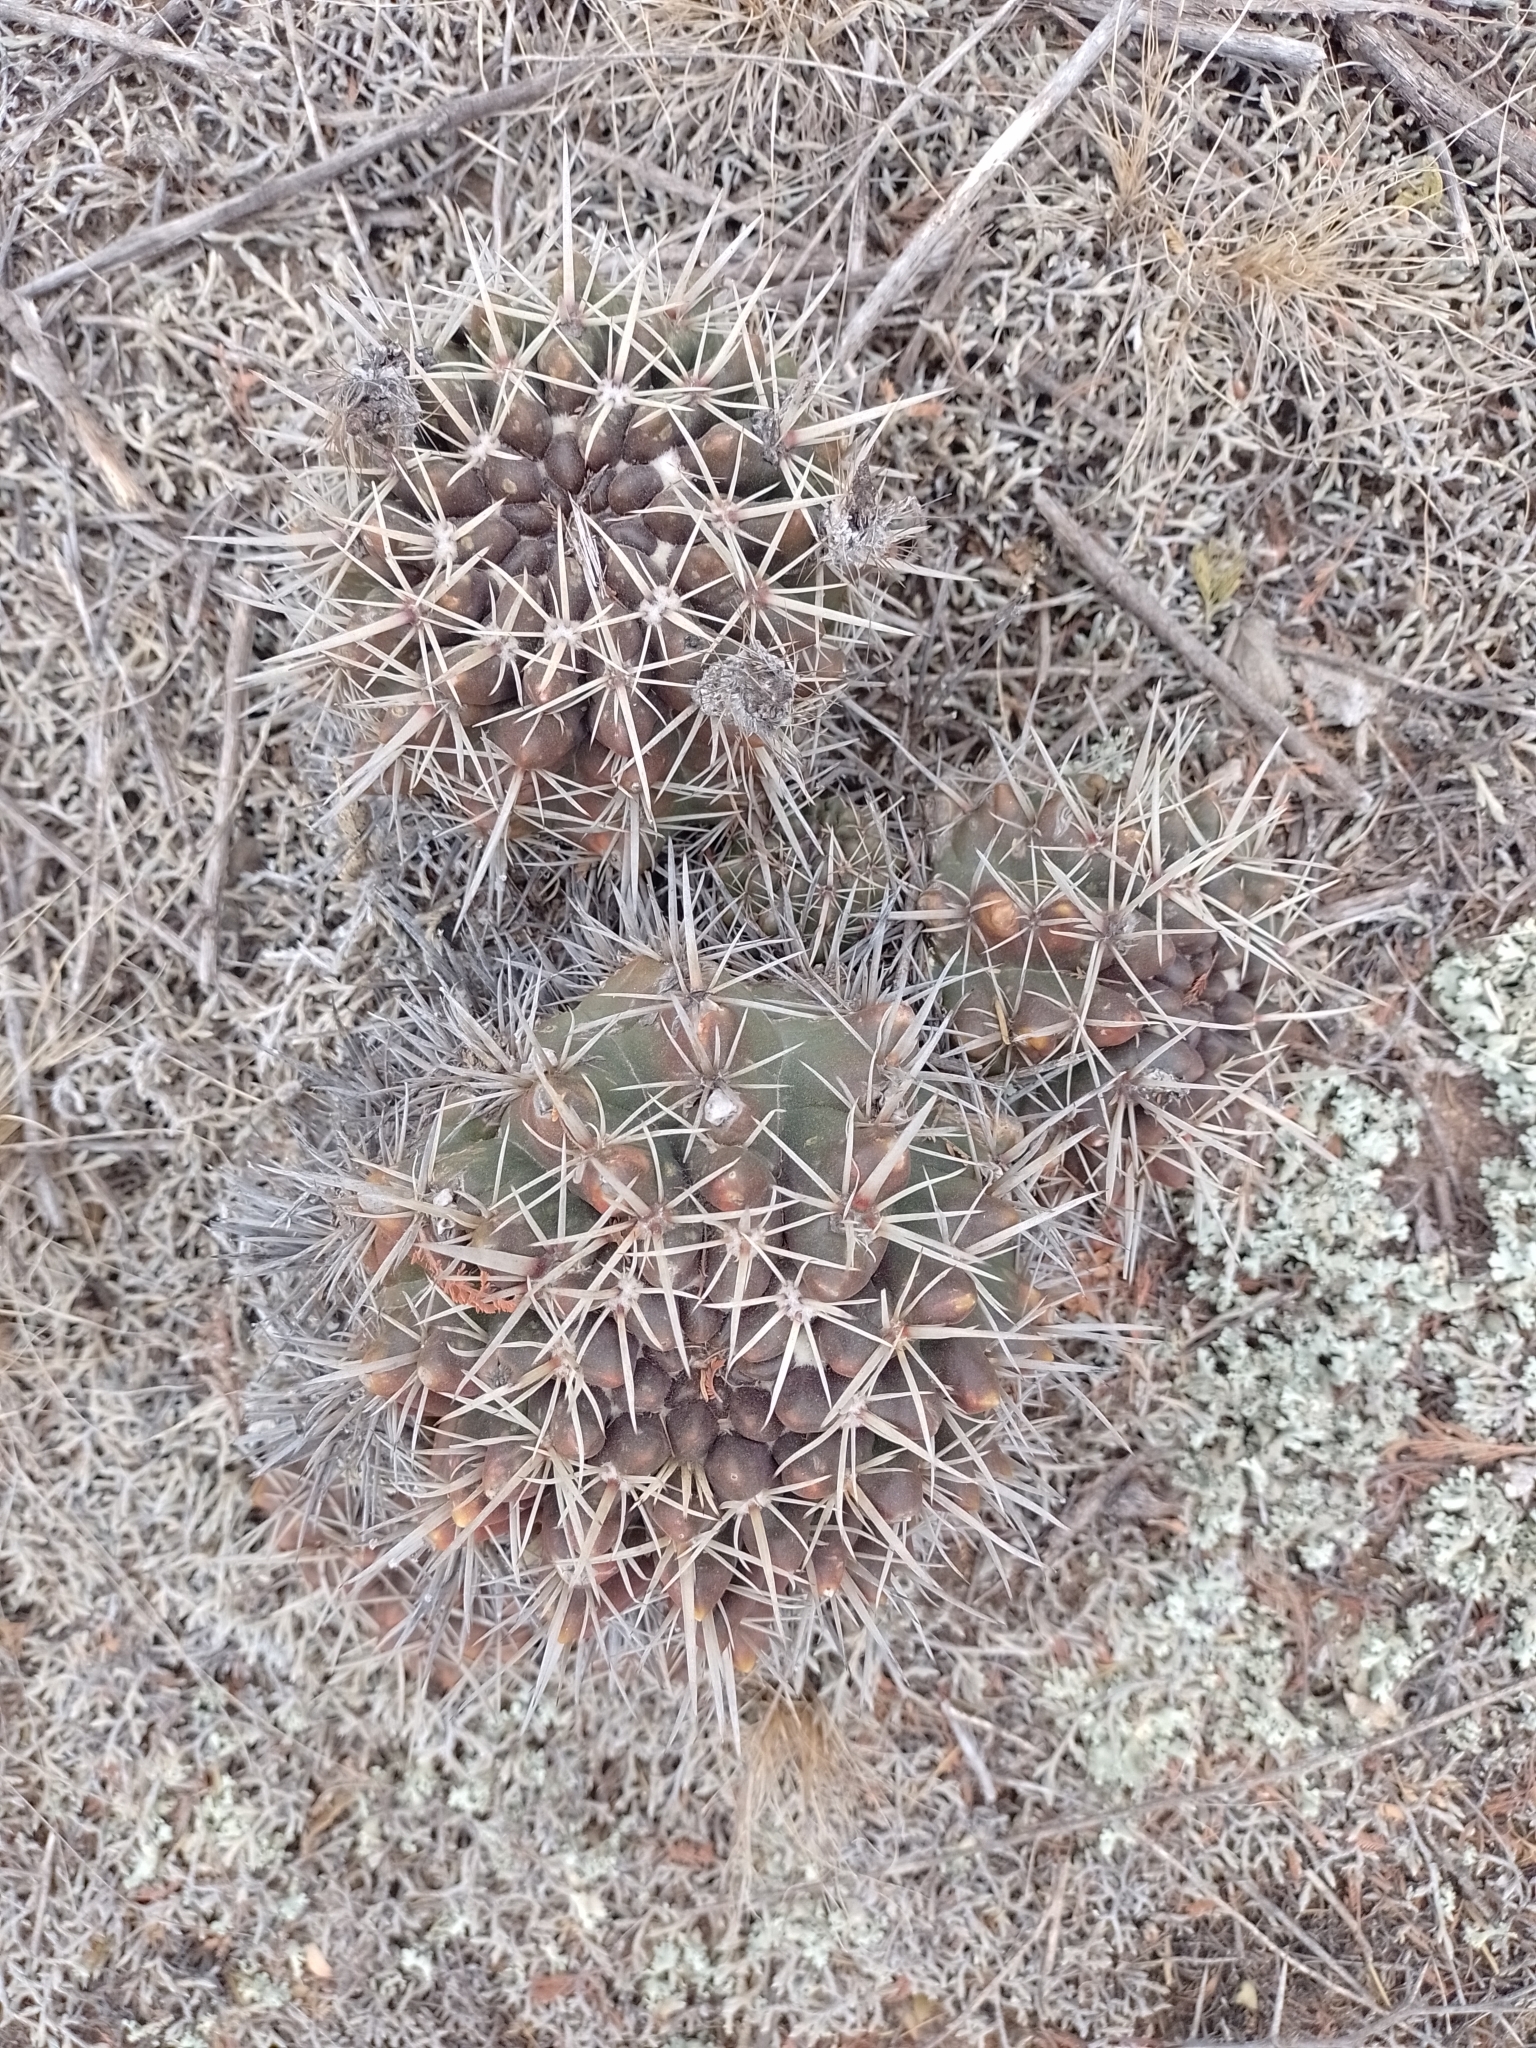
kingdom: Plantae
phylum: Tracheophyta
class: Magnoliopsida
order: Caryophyllales
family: Cactaceae
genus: Parodia
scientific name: Parodia mammulosa
